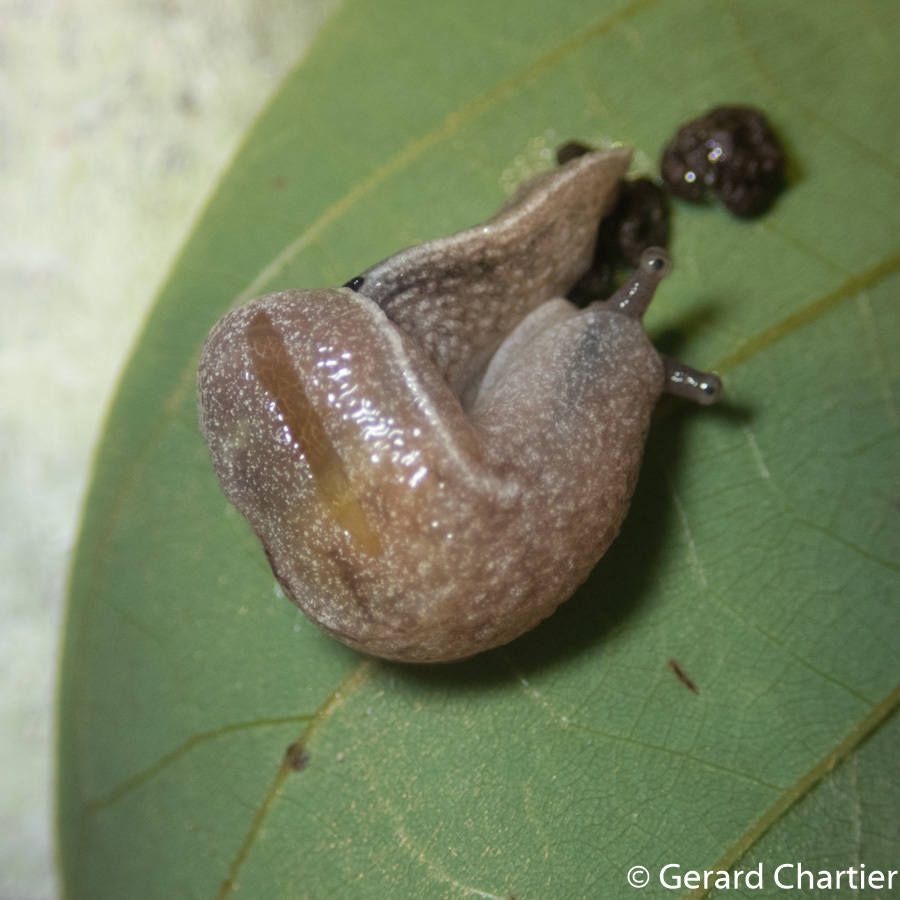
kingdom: Animalia
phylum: Mollusca
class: Gastropoda
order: Stylommatophora
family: Ariophantidae
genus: Parmarion
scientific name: Parmarion martensi
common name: Semi-slug
